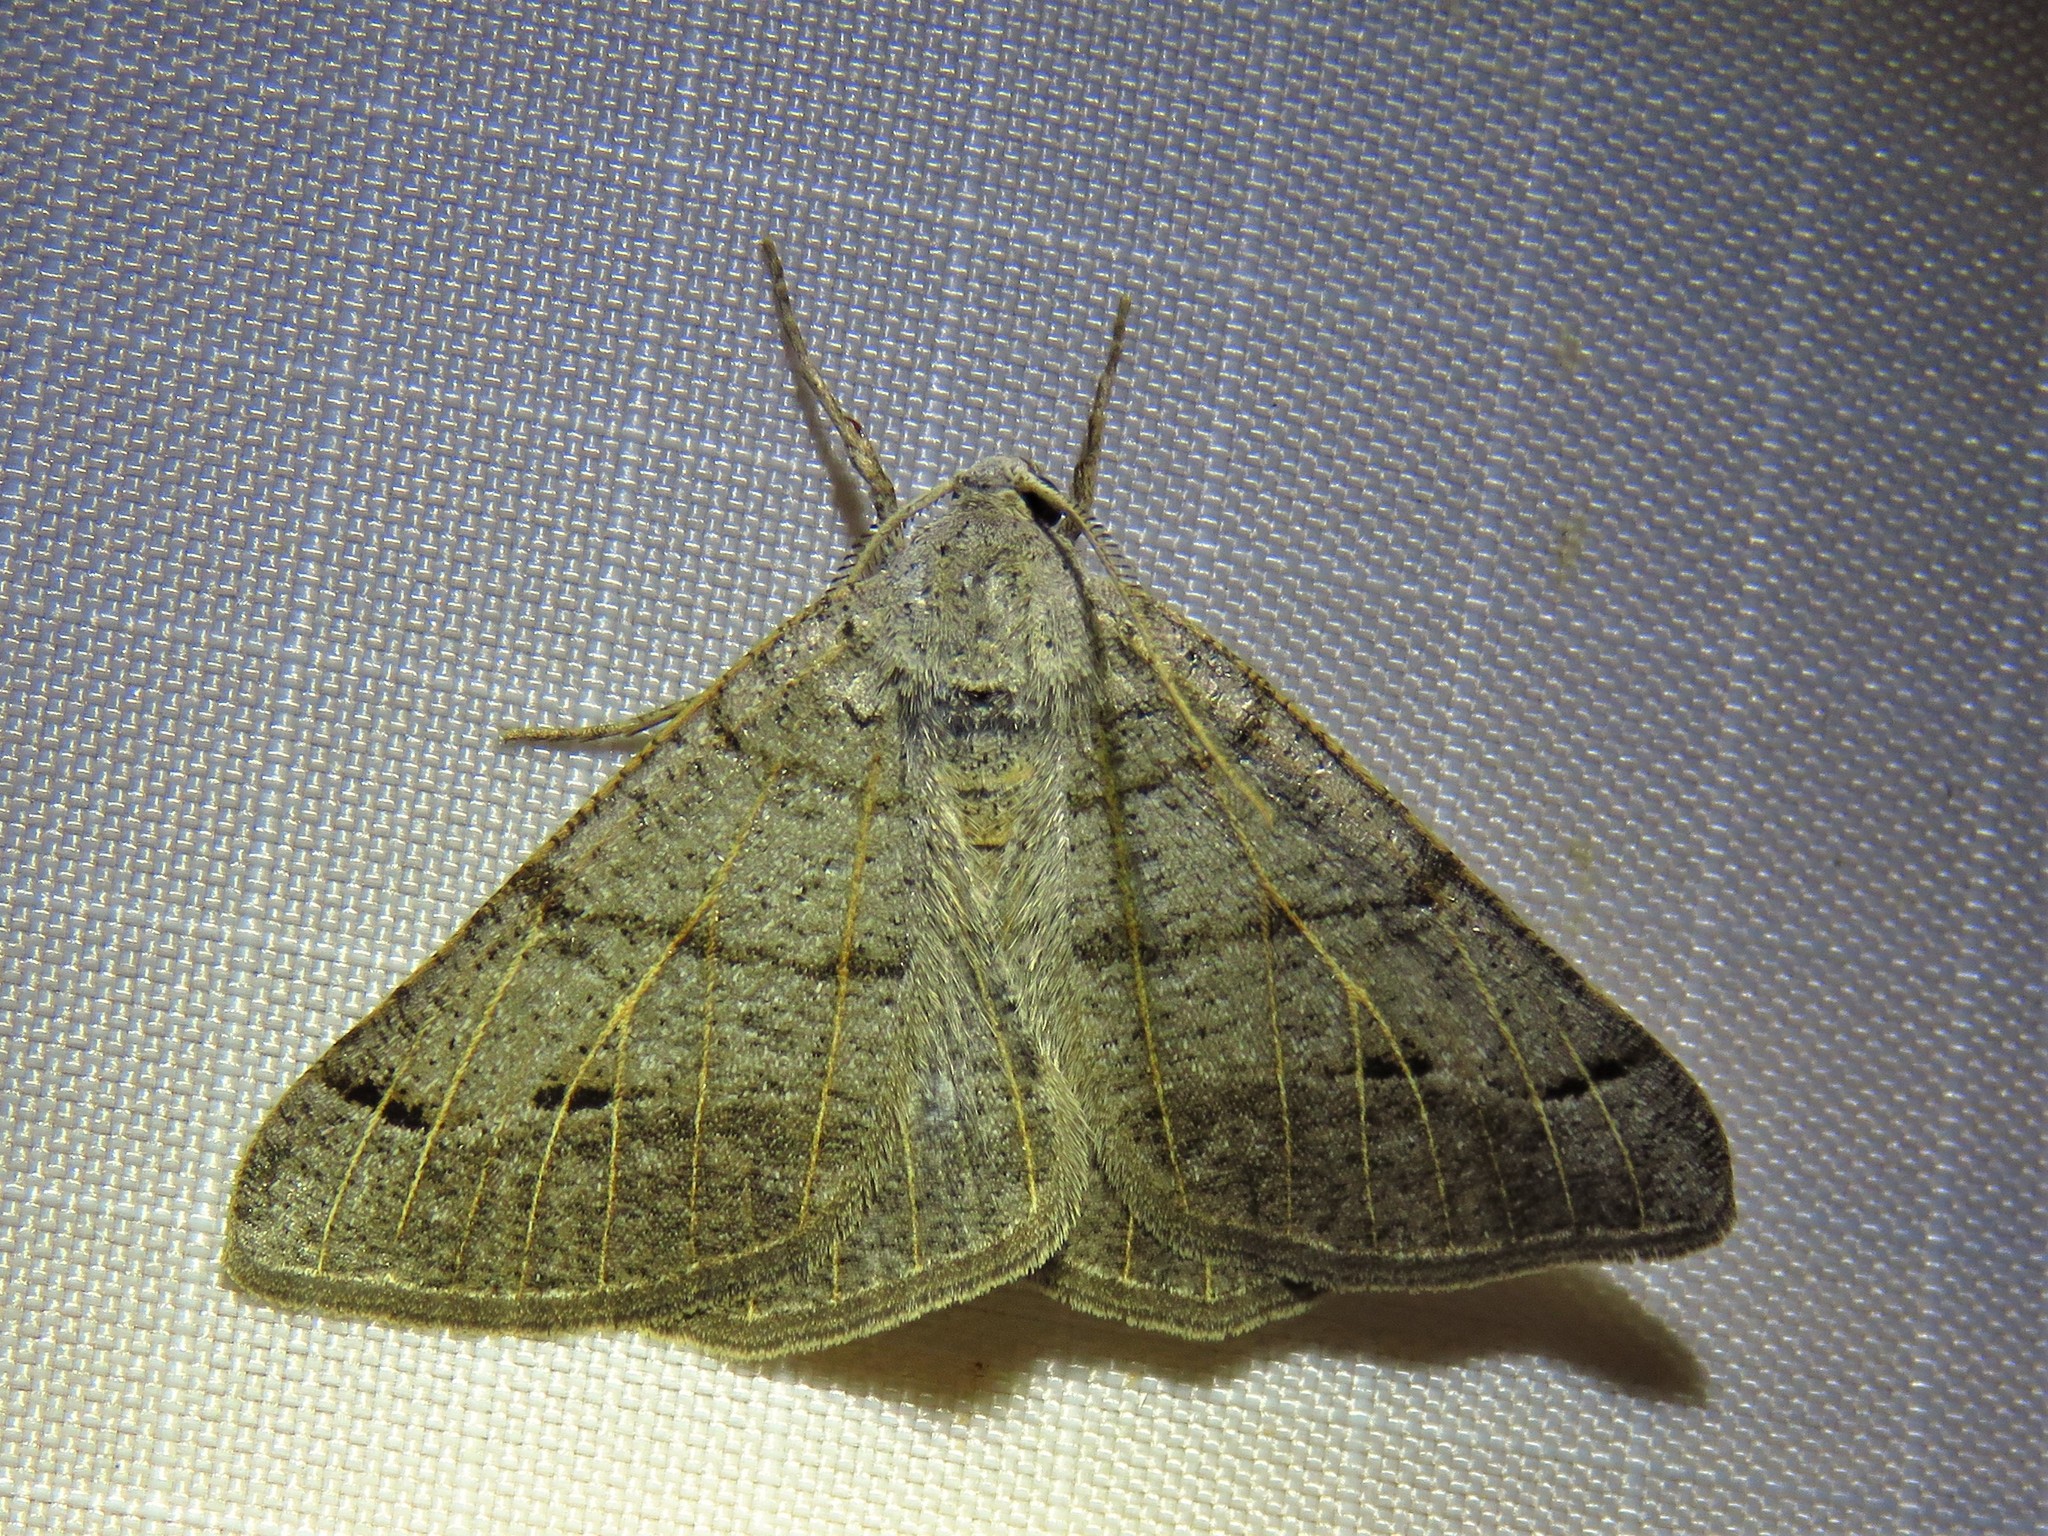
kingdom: Animalia
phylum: Arthropoda
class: Insecta
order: Lepidoptera
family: Geometridae
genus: Isturgia
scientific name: Isturgia dislocaria
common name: Pale-viened enconista
